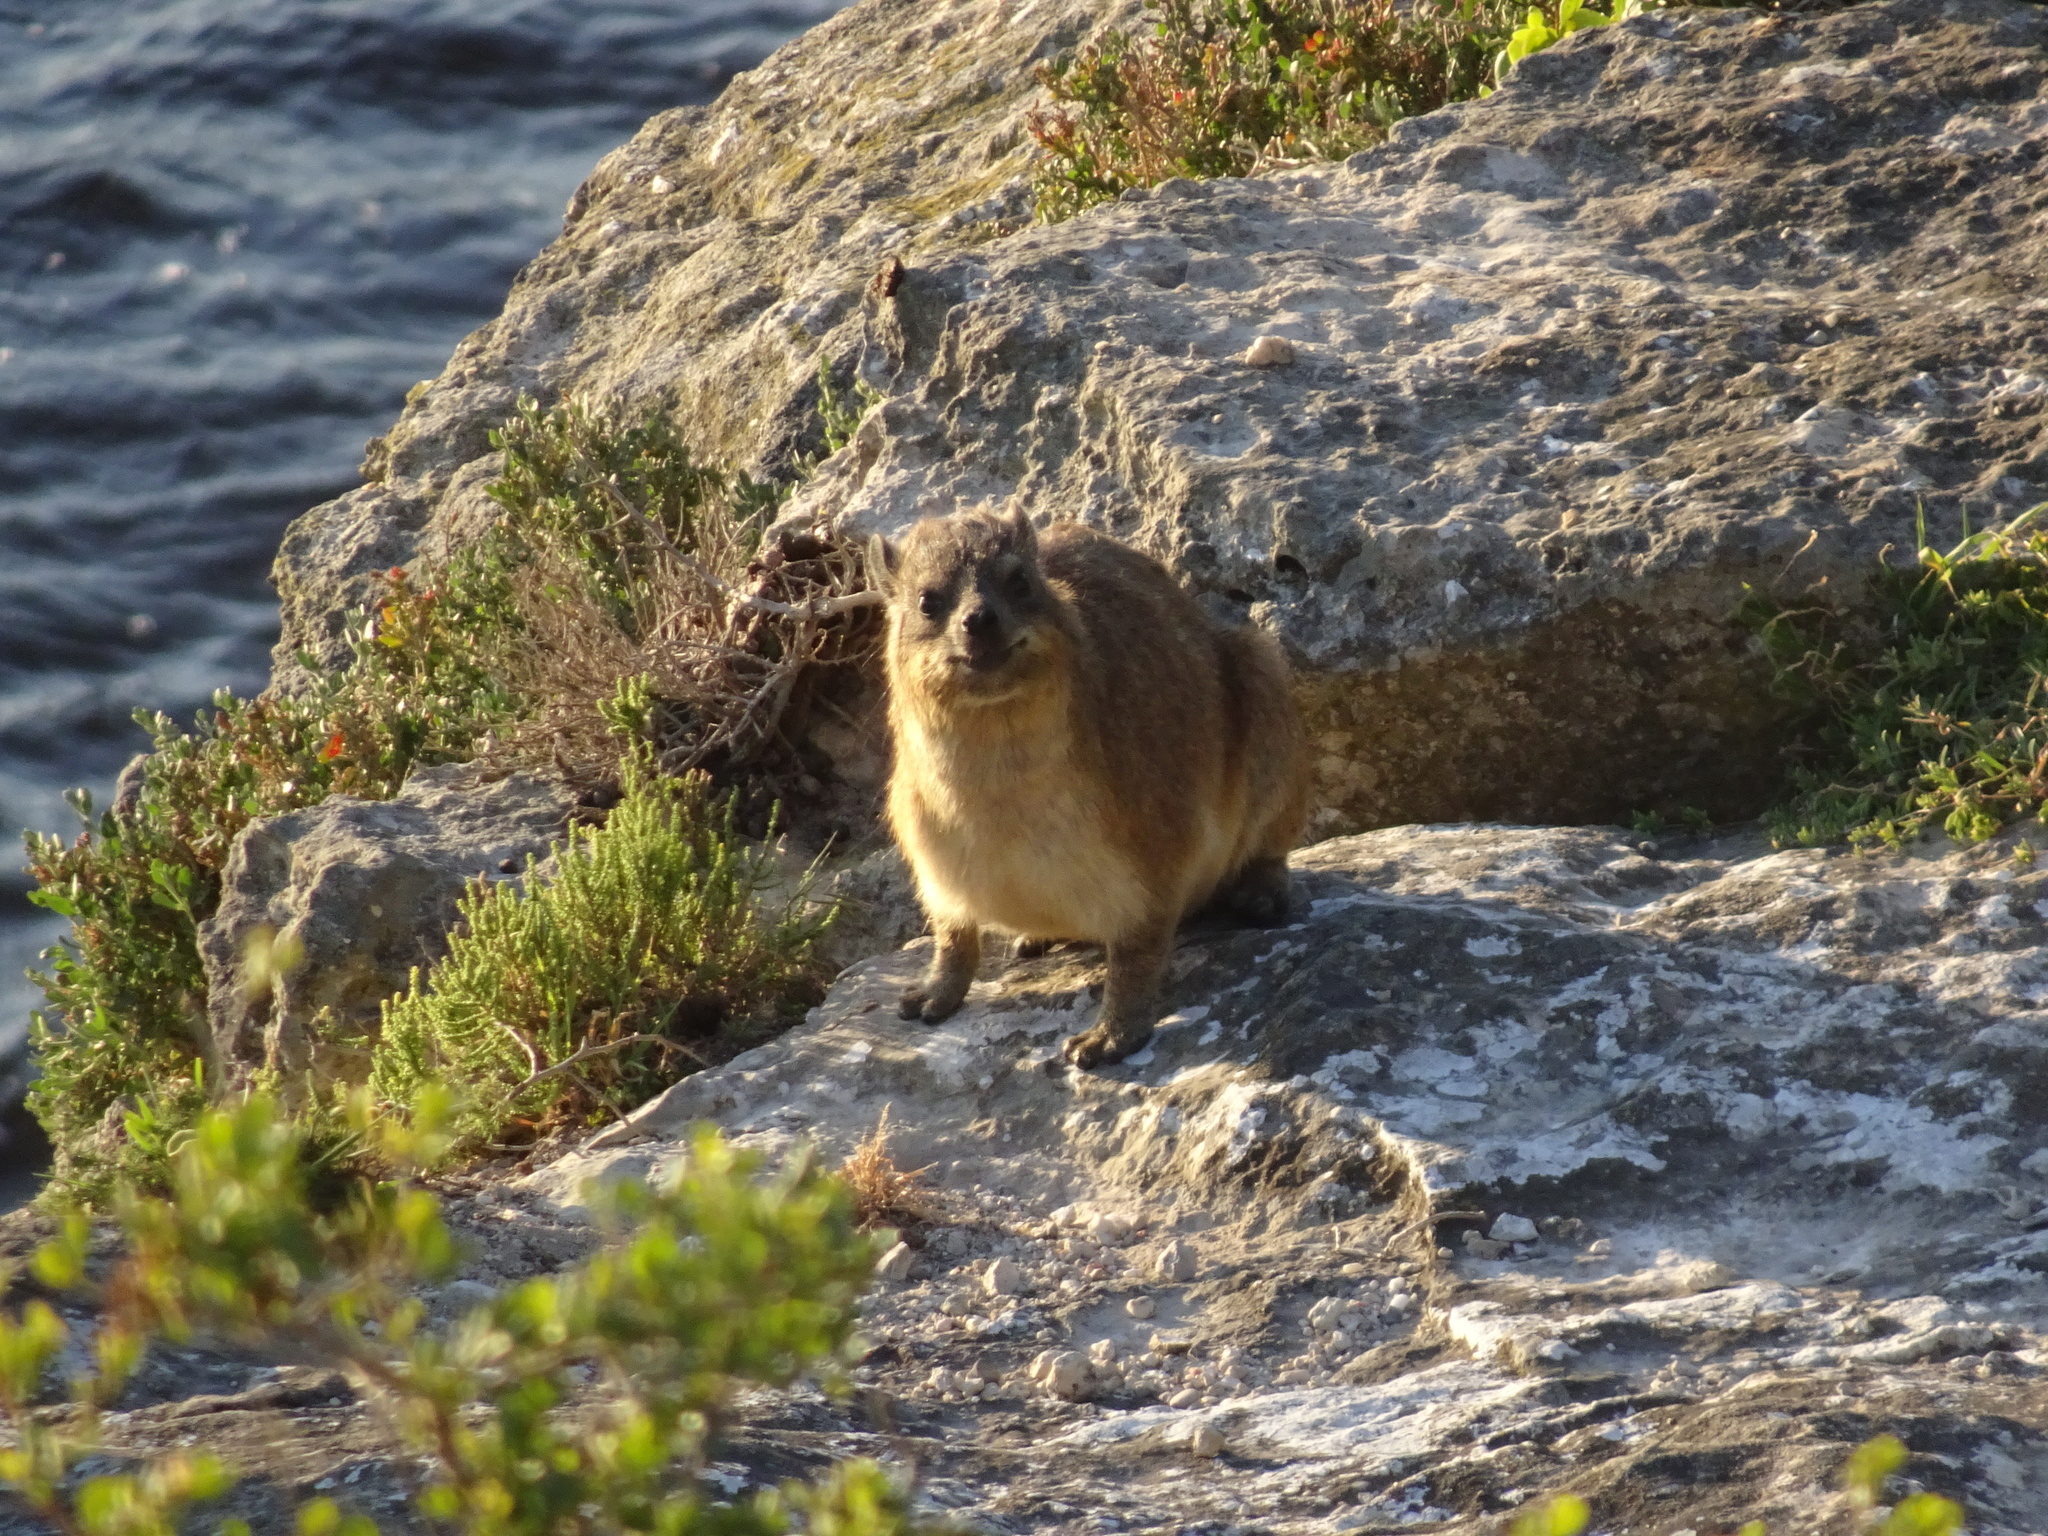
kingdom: Animalia
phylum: Chordata
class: Mammalia
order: Hyracoidea
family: Procaviidae
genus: Procavia
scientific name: Procavia capensis
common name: Rock hyrax
